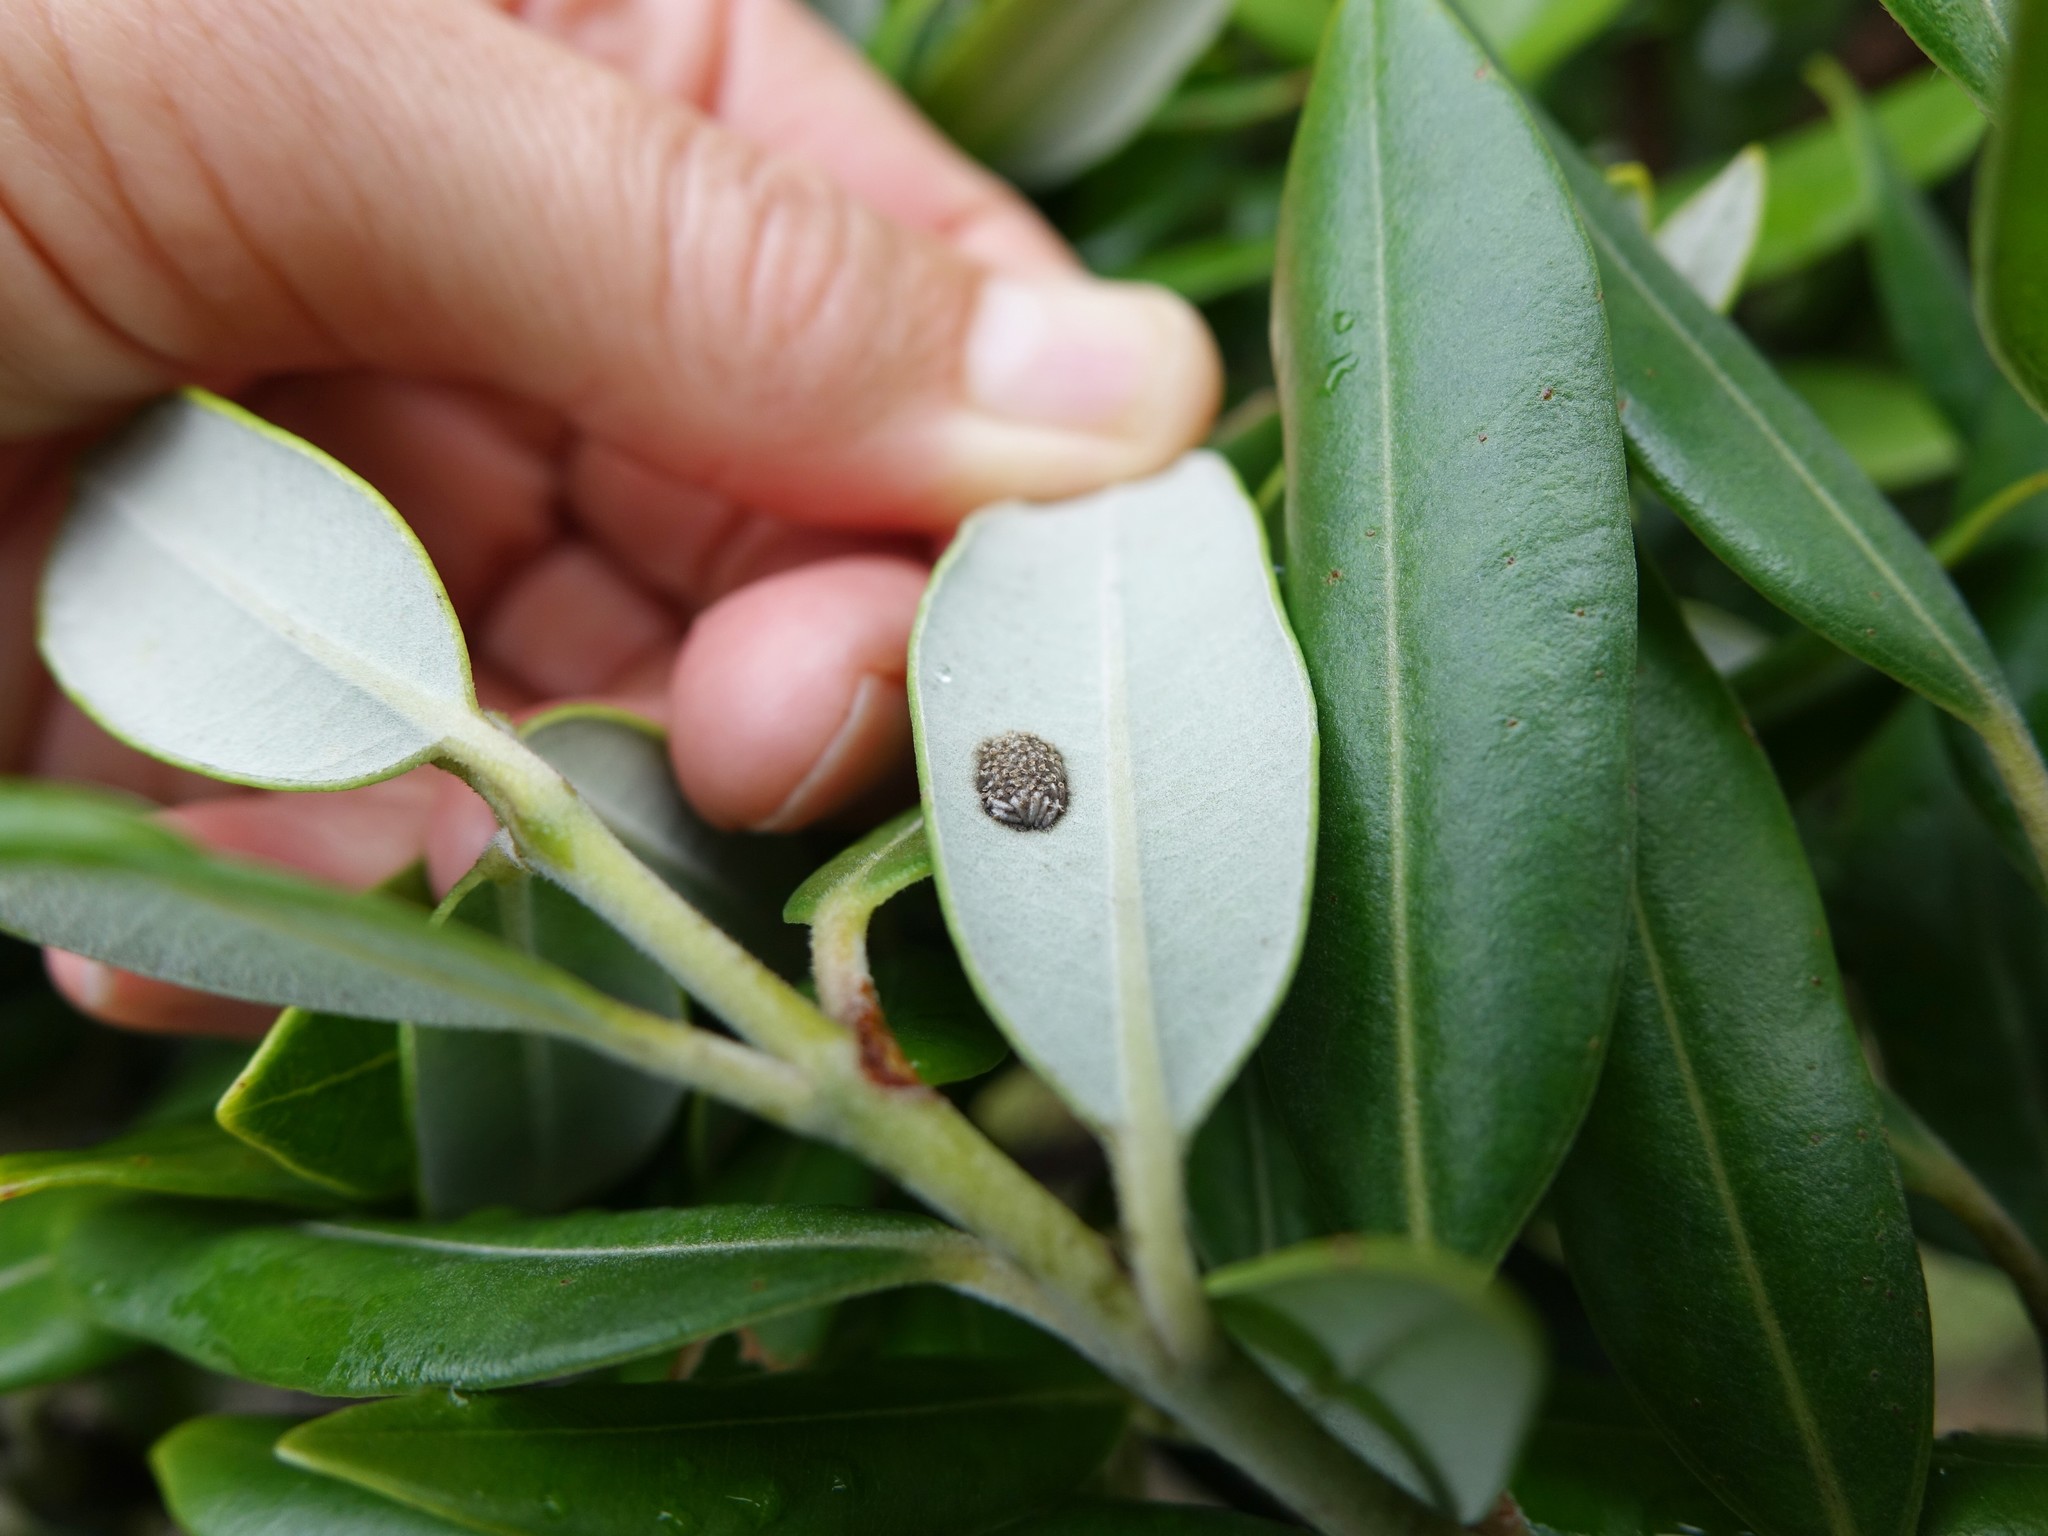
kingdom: Animalia
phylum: Arthropoda
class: Insecta
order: Hemiptera
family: Flatidae
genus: Siphanta
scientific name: Siphanta acuta
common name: Torpedo bug
